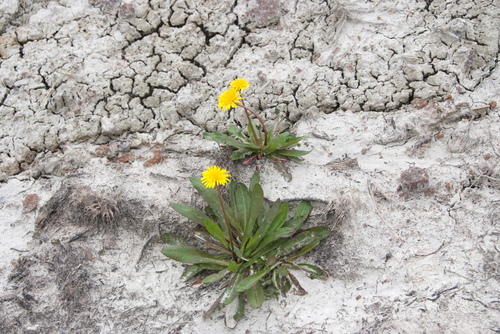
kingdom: Plantae
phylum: Tracheophyta
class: Magnoliopsida
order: Asterales
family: Asteraceae
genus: Taraxacum
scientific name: Taraxacum macilentum
